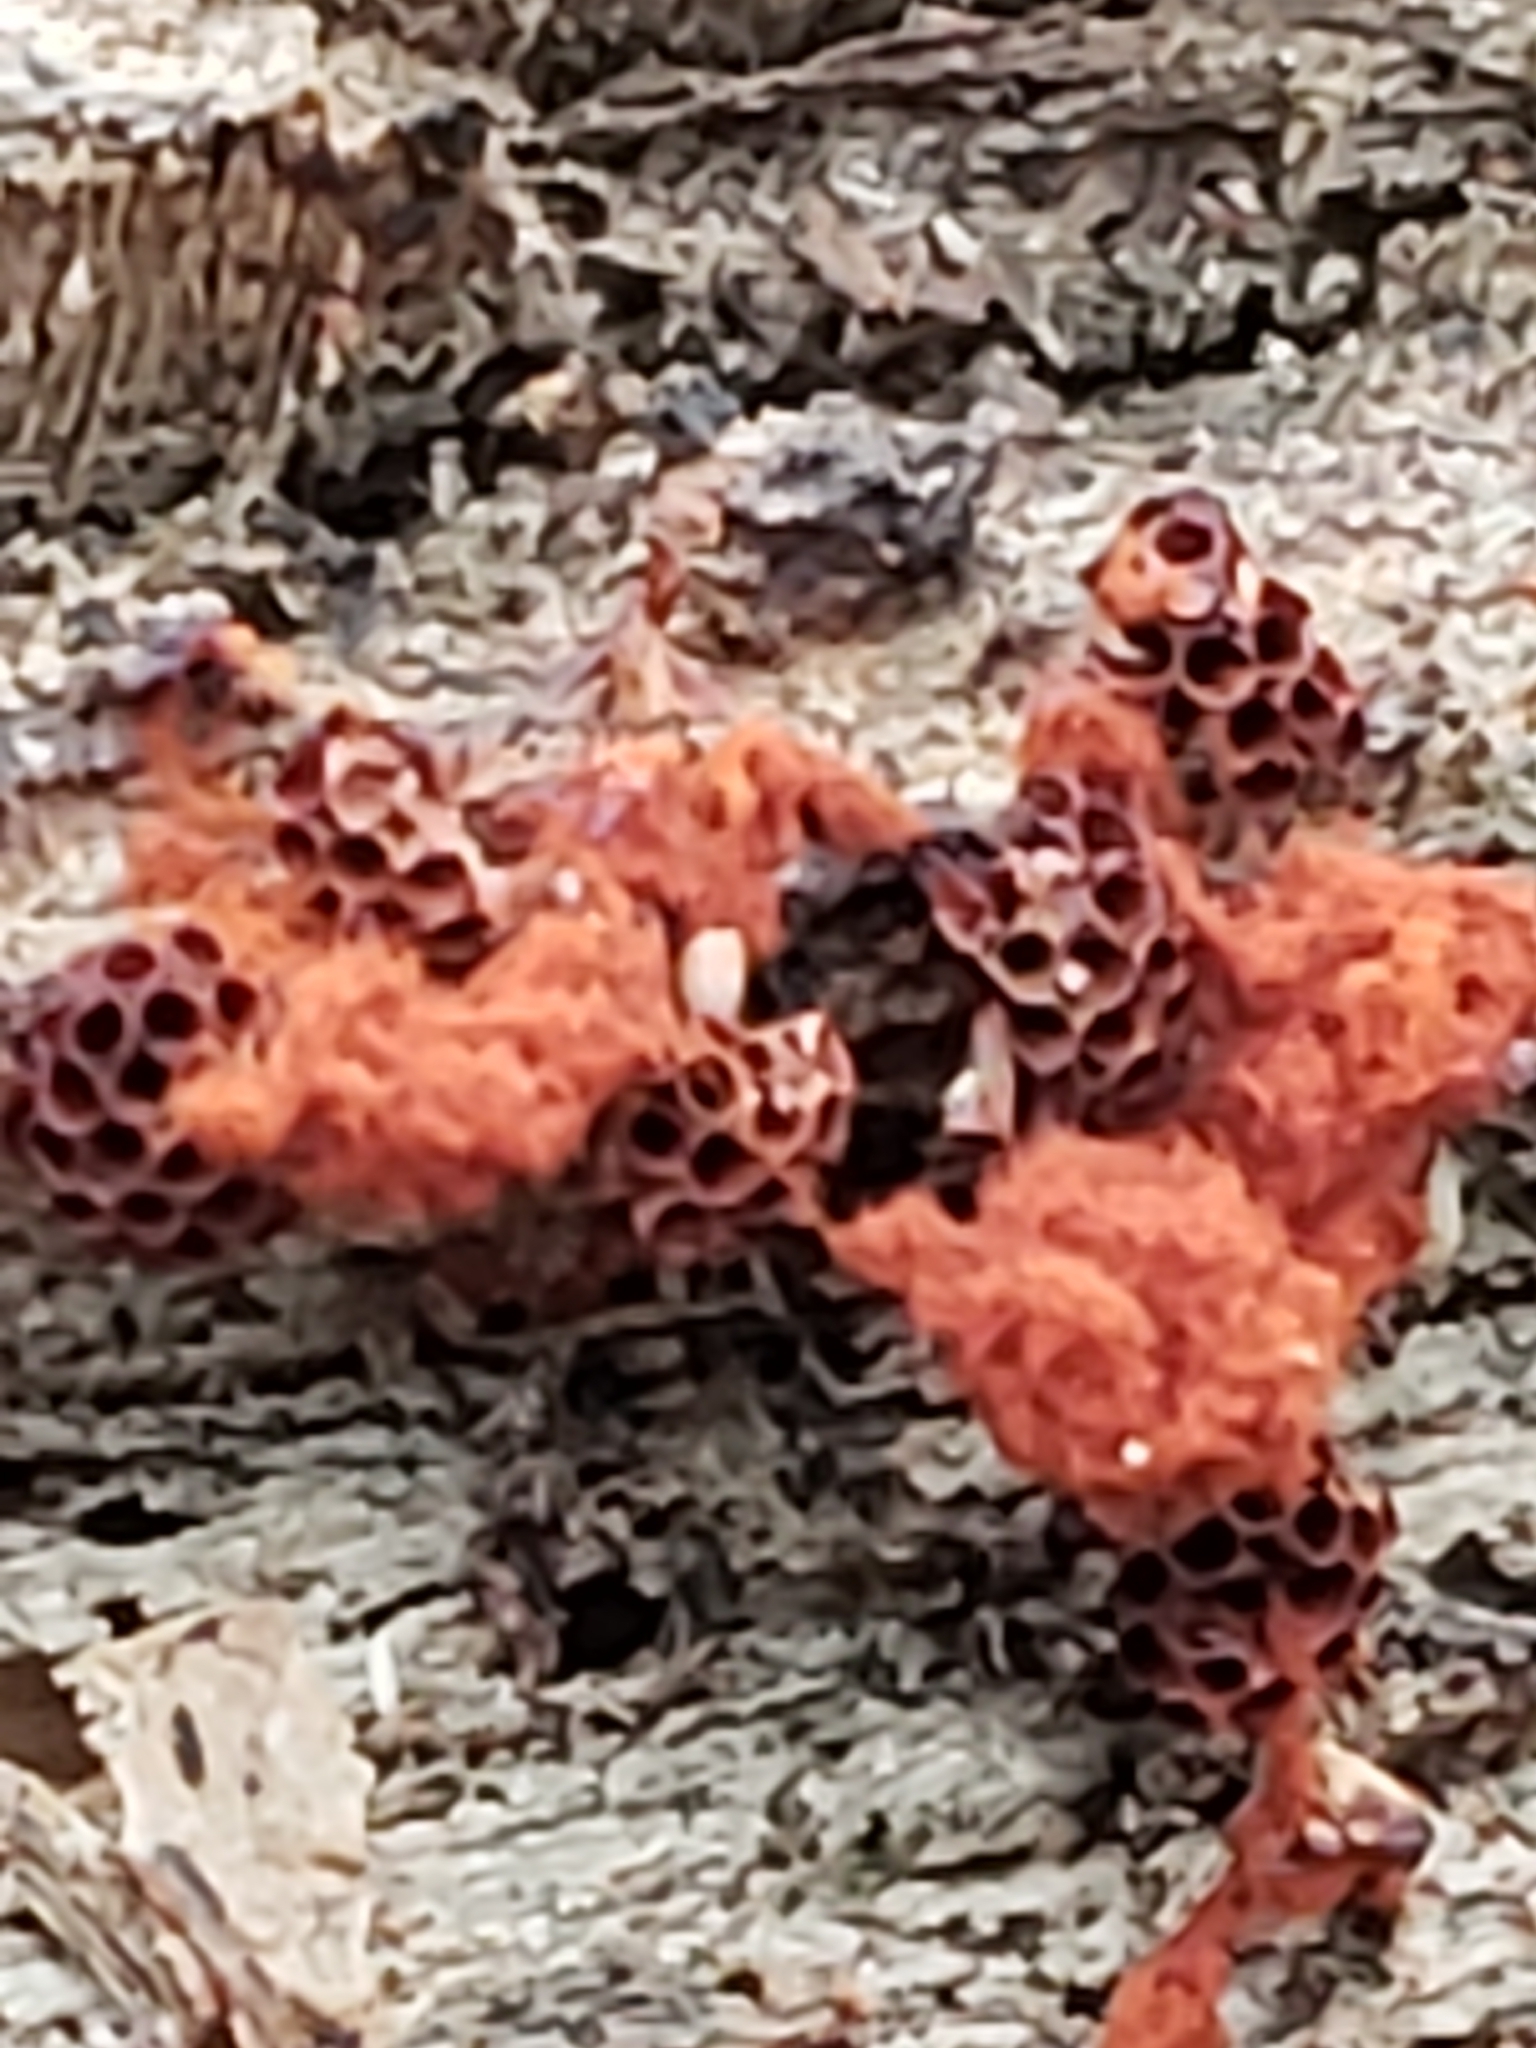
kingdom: Protozoa
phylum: Mycetozoa
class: Myxomycetes
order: Trichiales
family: Trichiaceae
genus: Metatrichia
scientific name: Metatrichia vesparia
